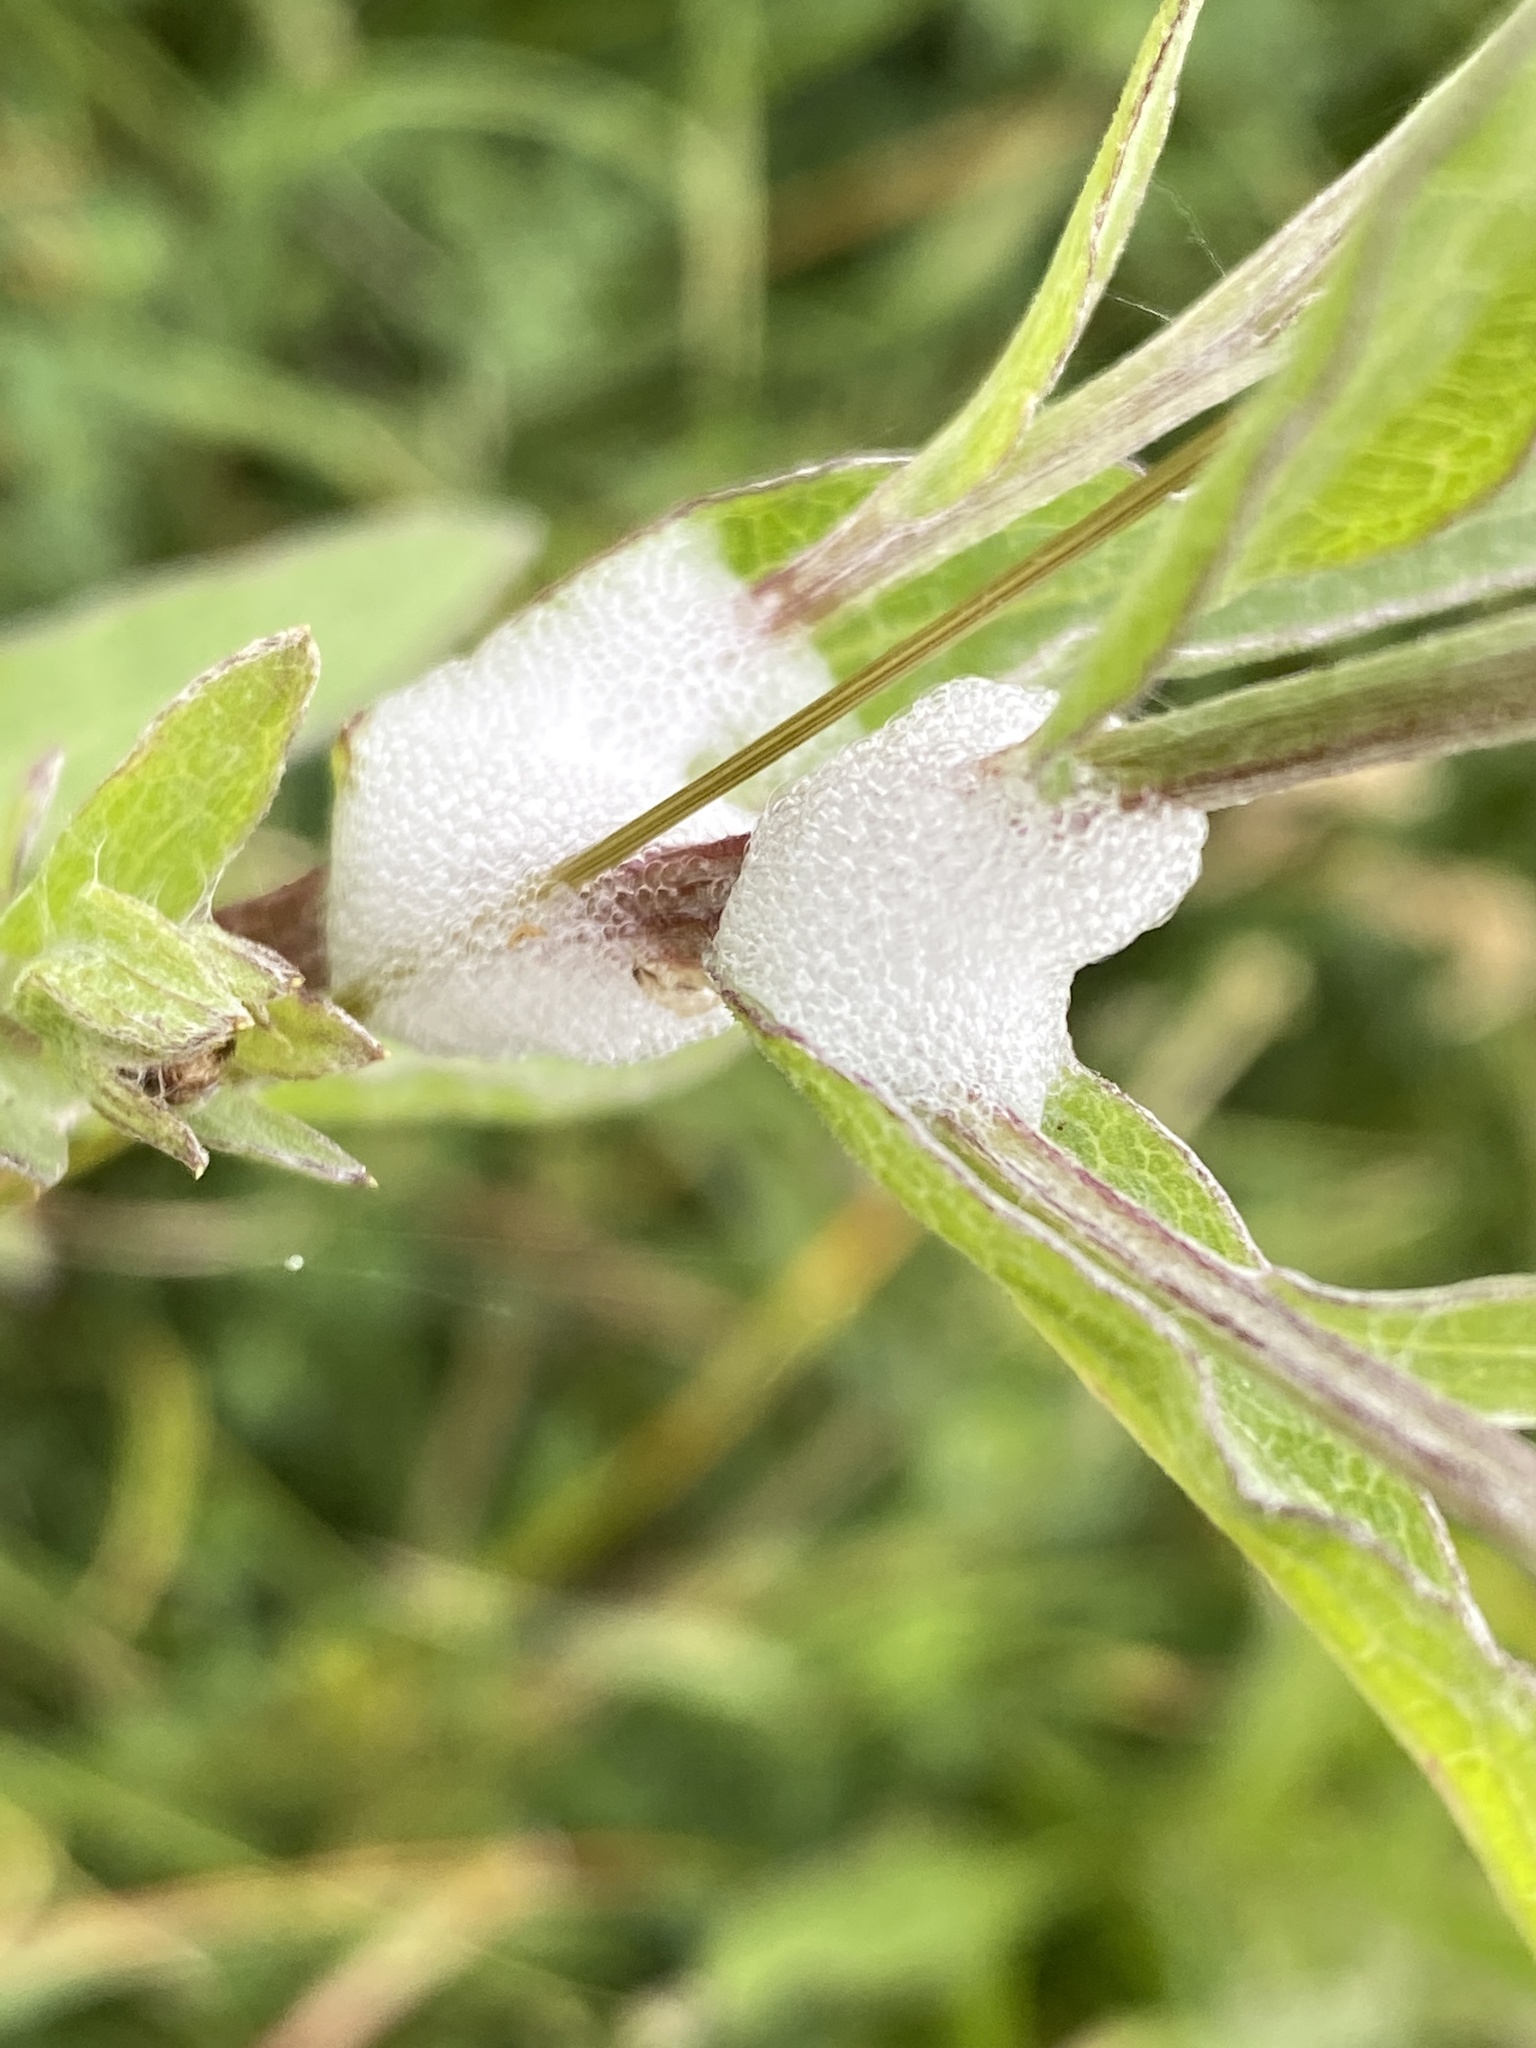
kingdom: Animalia
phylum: Arthropoda
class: Insecta
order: Hemiptera
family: Aphrophoridae
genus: Philaenus
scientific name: Philaenus spumarius
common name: Meadow spittlebug
